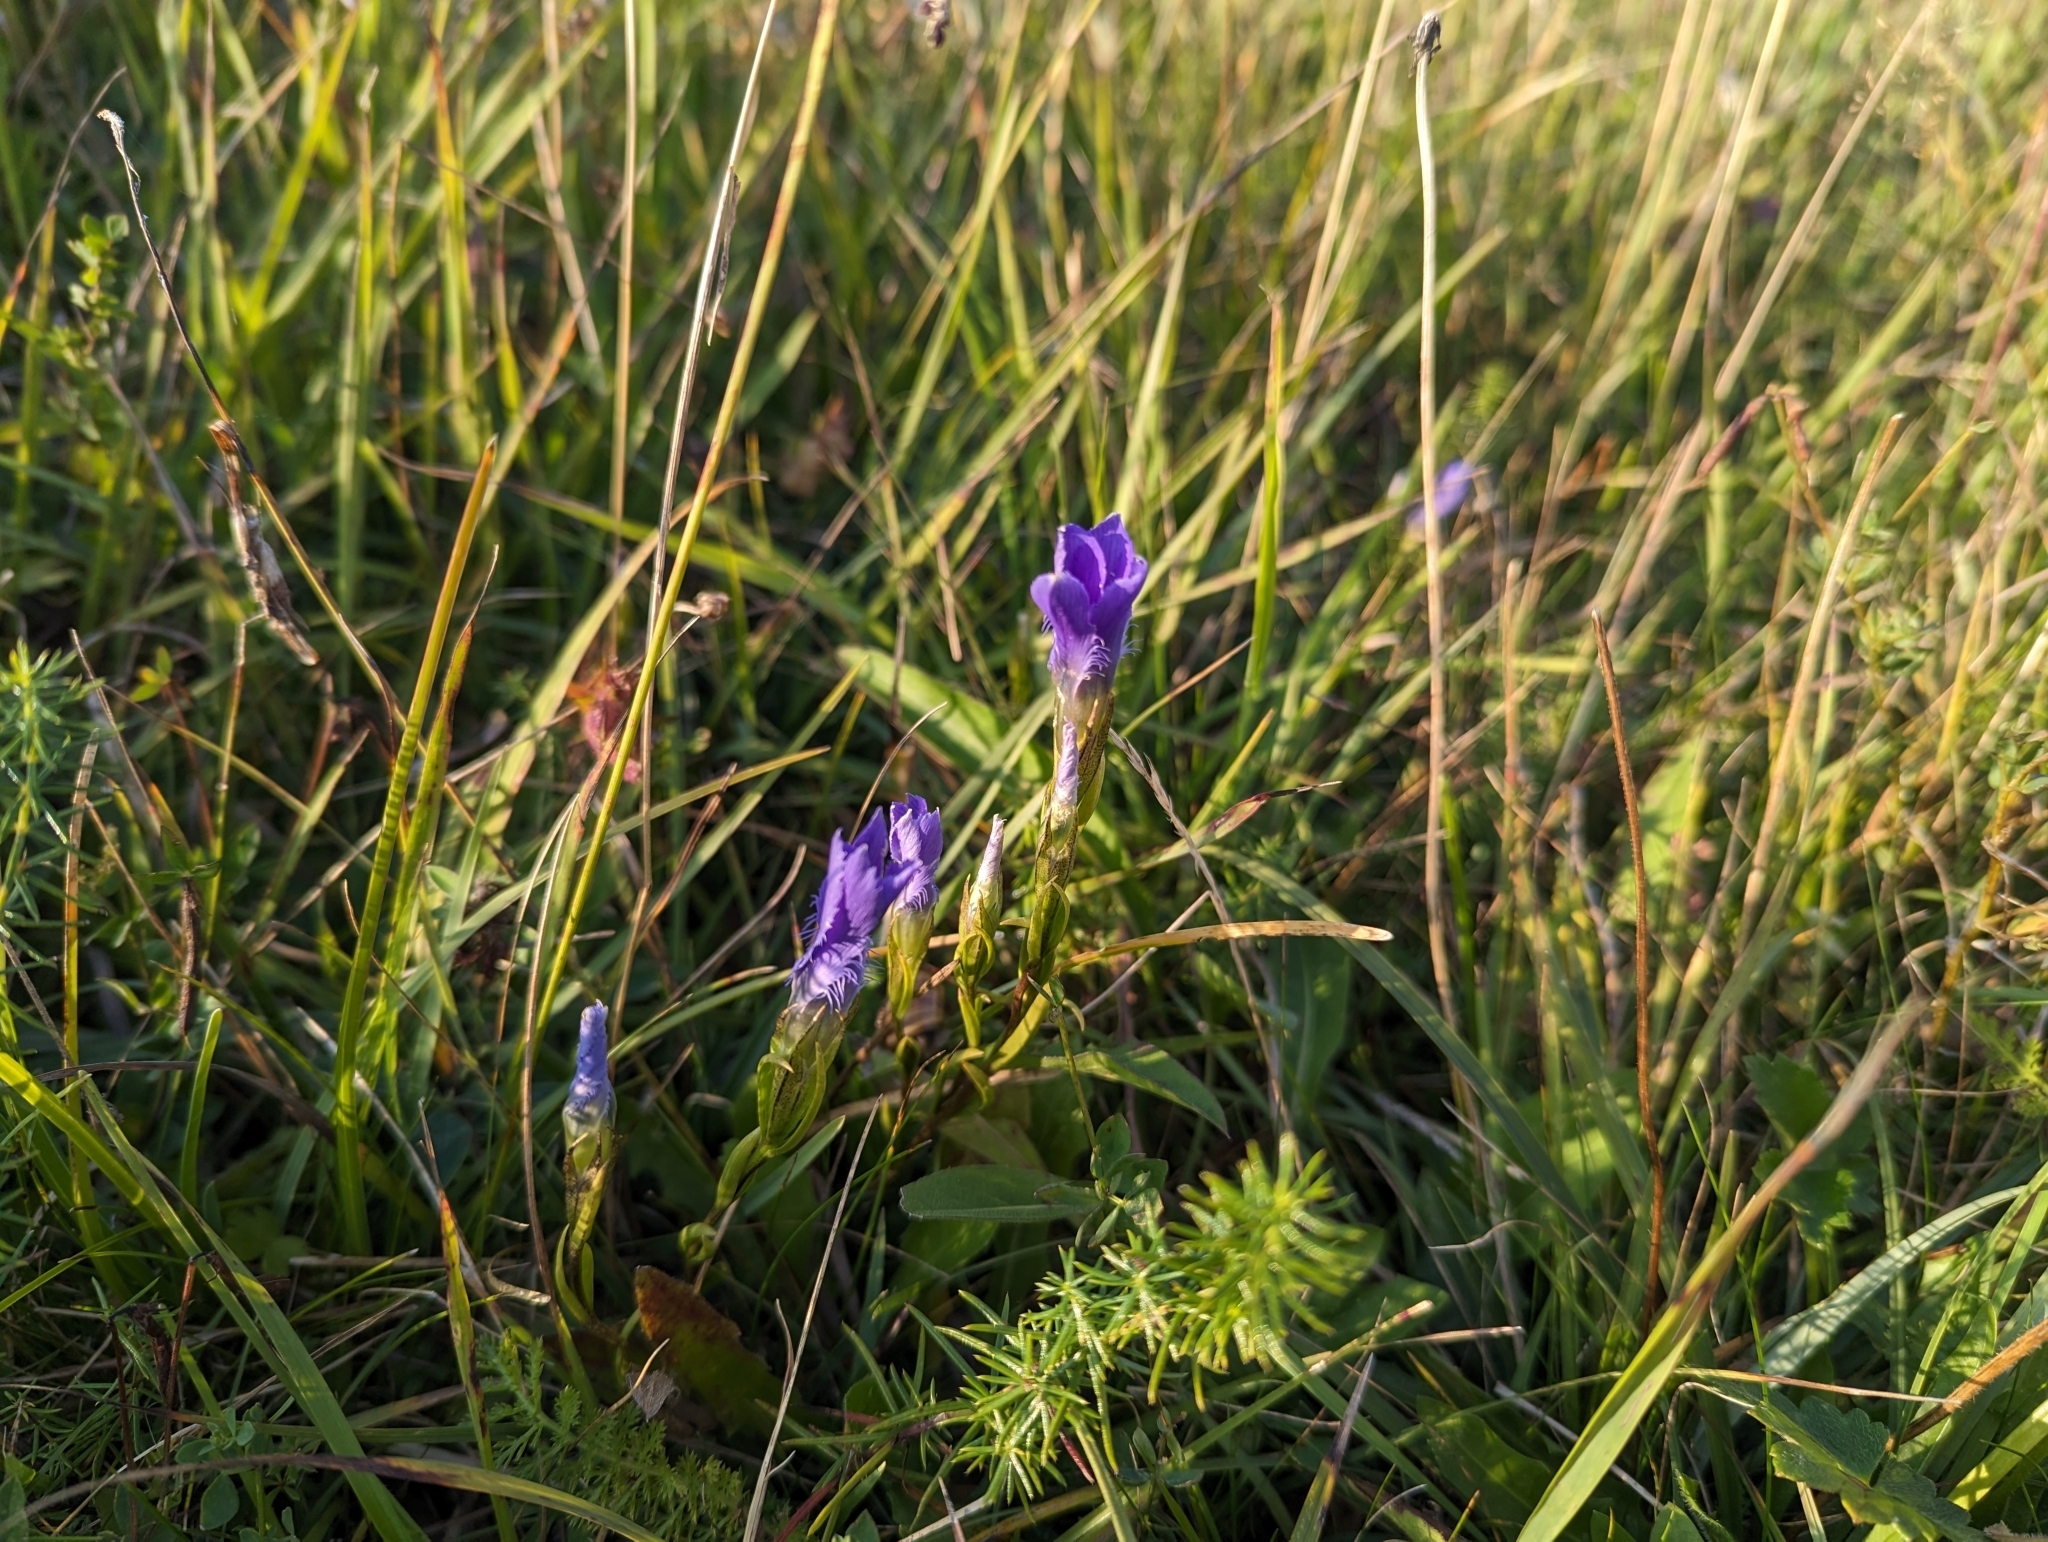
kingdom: Plantae
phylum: Tracheophyta
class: Magnoliopsida
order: Gentianales
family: Gentianaceae
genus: Gentianopsis
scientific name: Gentianopsis ciliata
